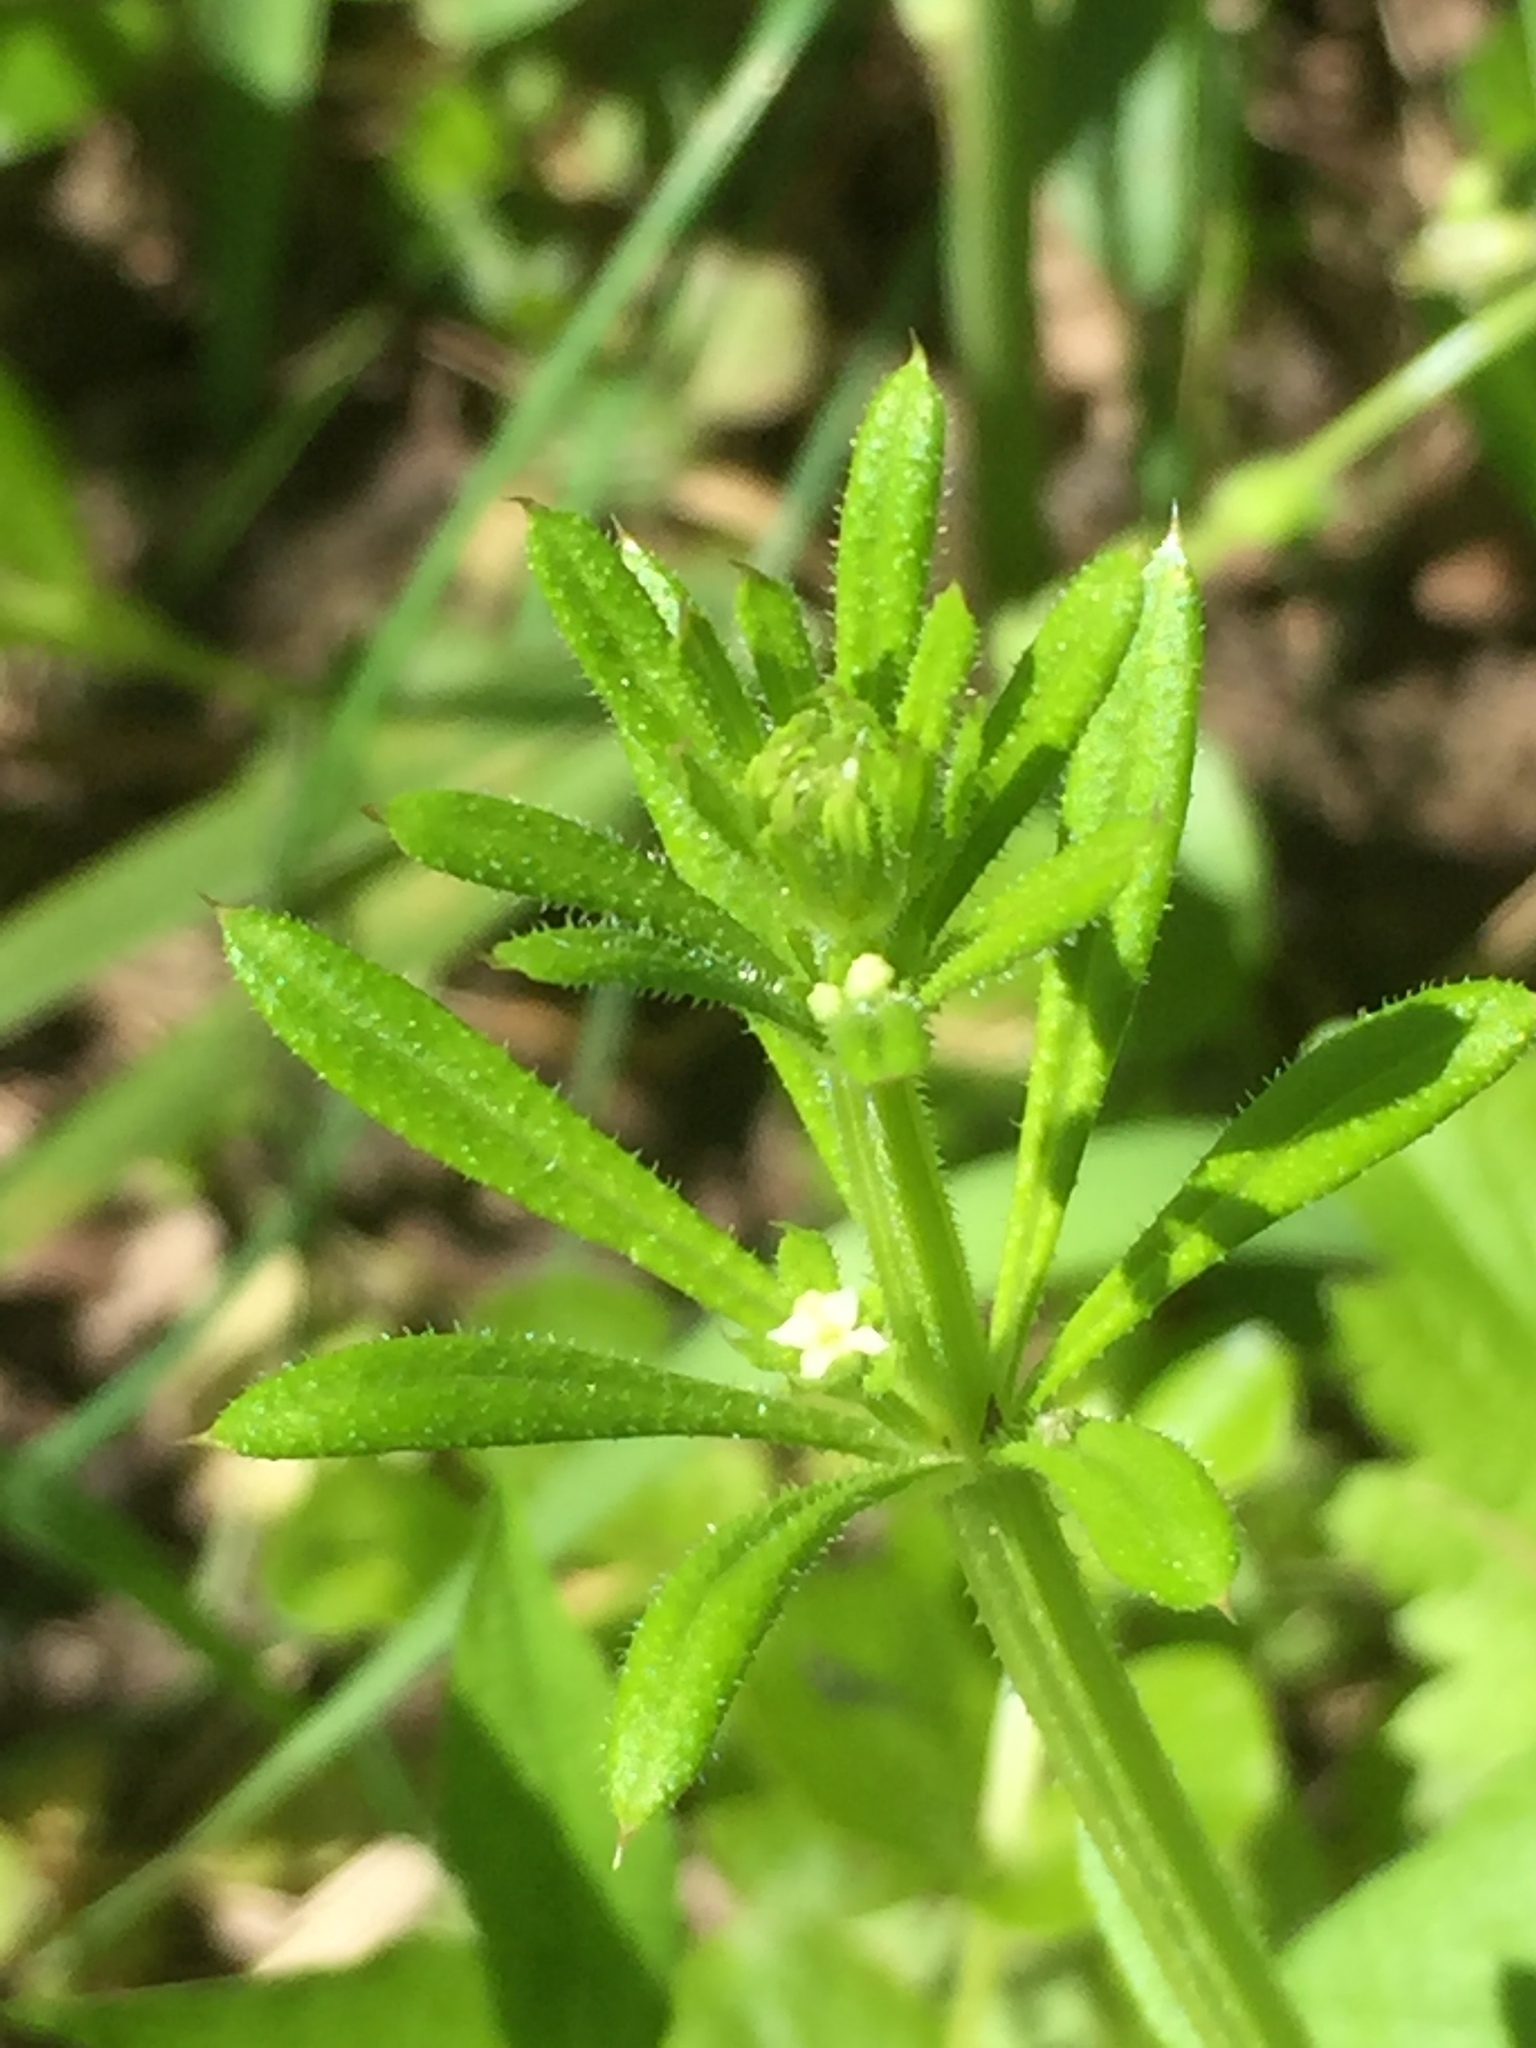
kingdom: Plantae
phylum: Tracheophyta
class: Magnoliopsida
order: Gentianales
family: Rubiaceae
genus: Galium
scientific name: Galium aparine
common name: Cleavers
